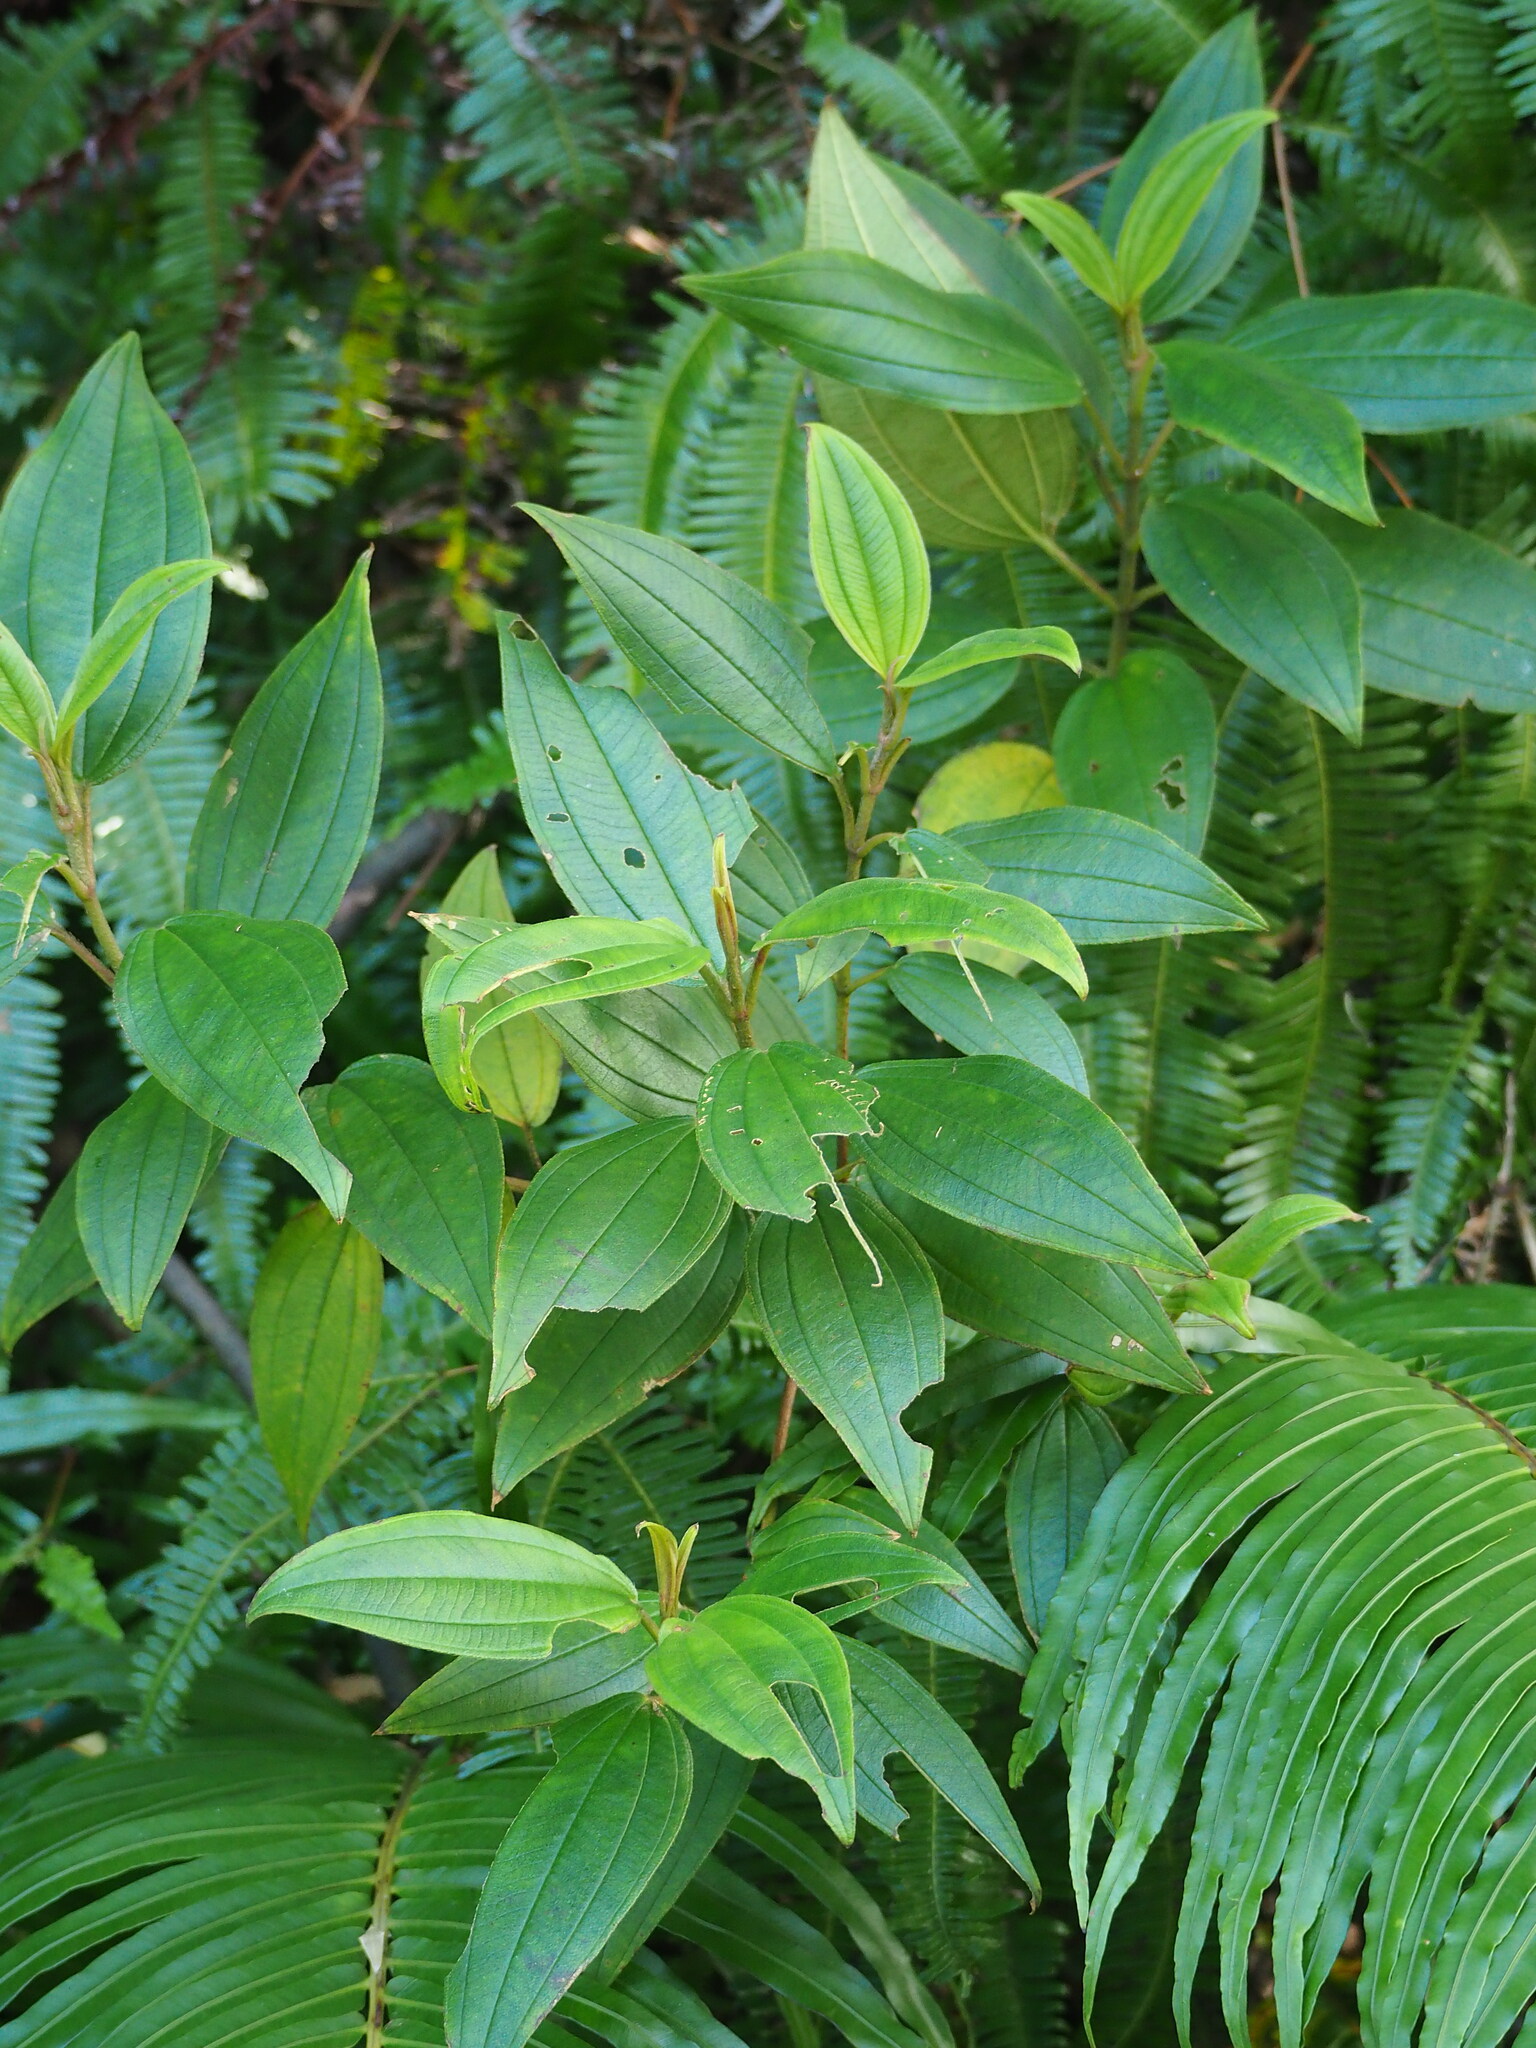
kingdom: Plantae
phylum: Tracheophyta
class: Magnoliopsida
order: Myrtales
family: Melastomataceae
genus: Melastoma
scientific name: Melastoma malabathricum
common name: Indian-rhododendron
